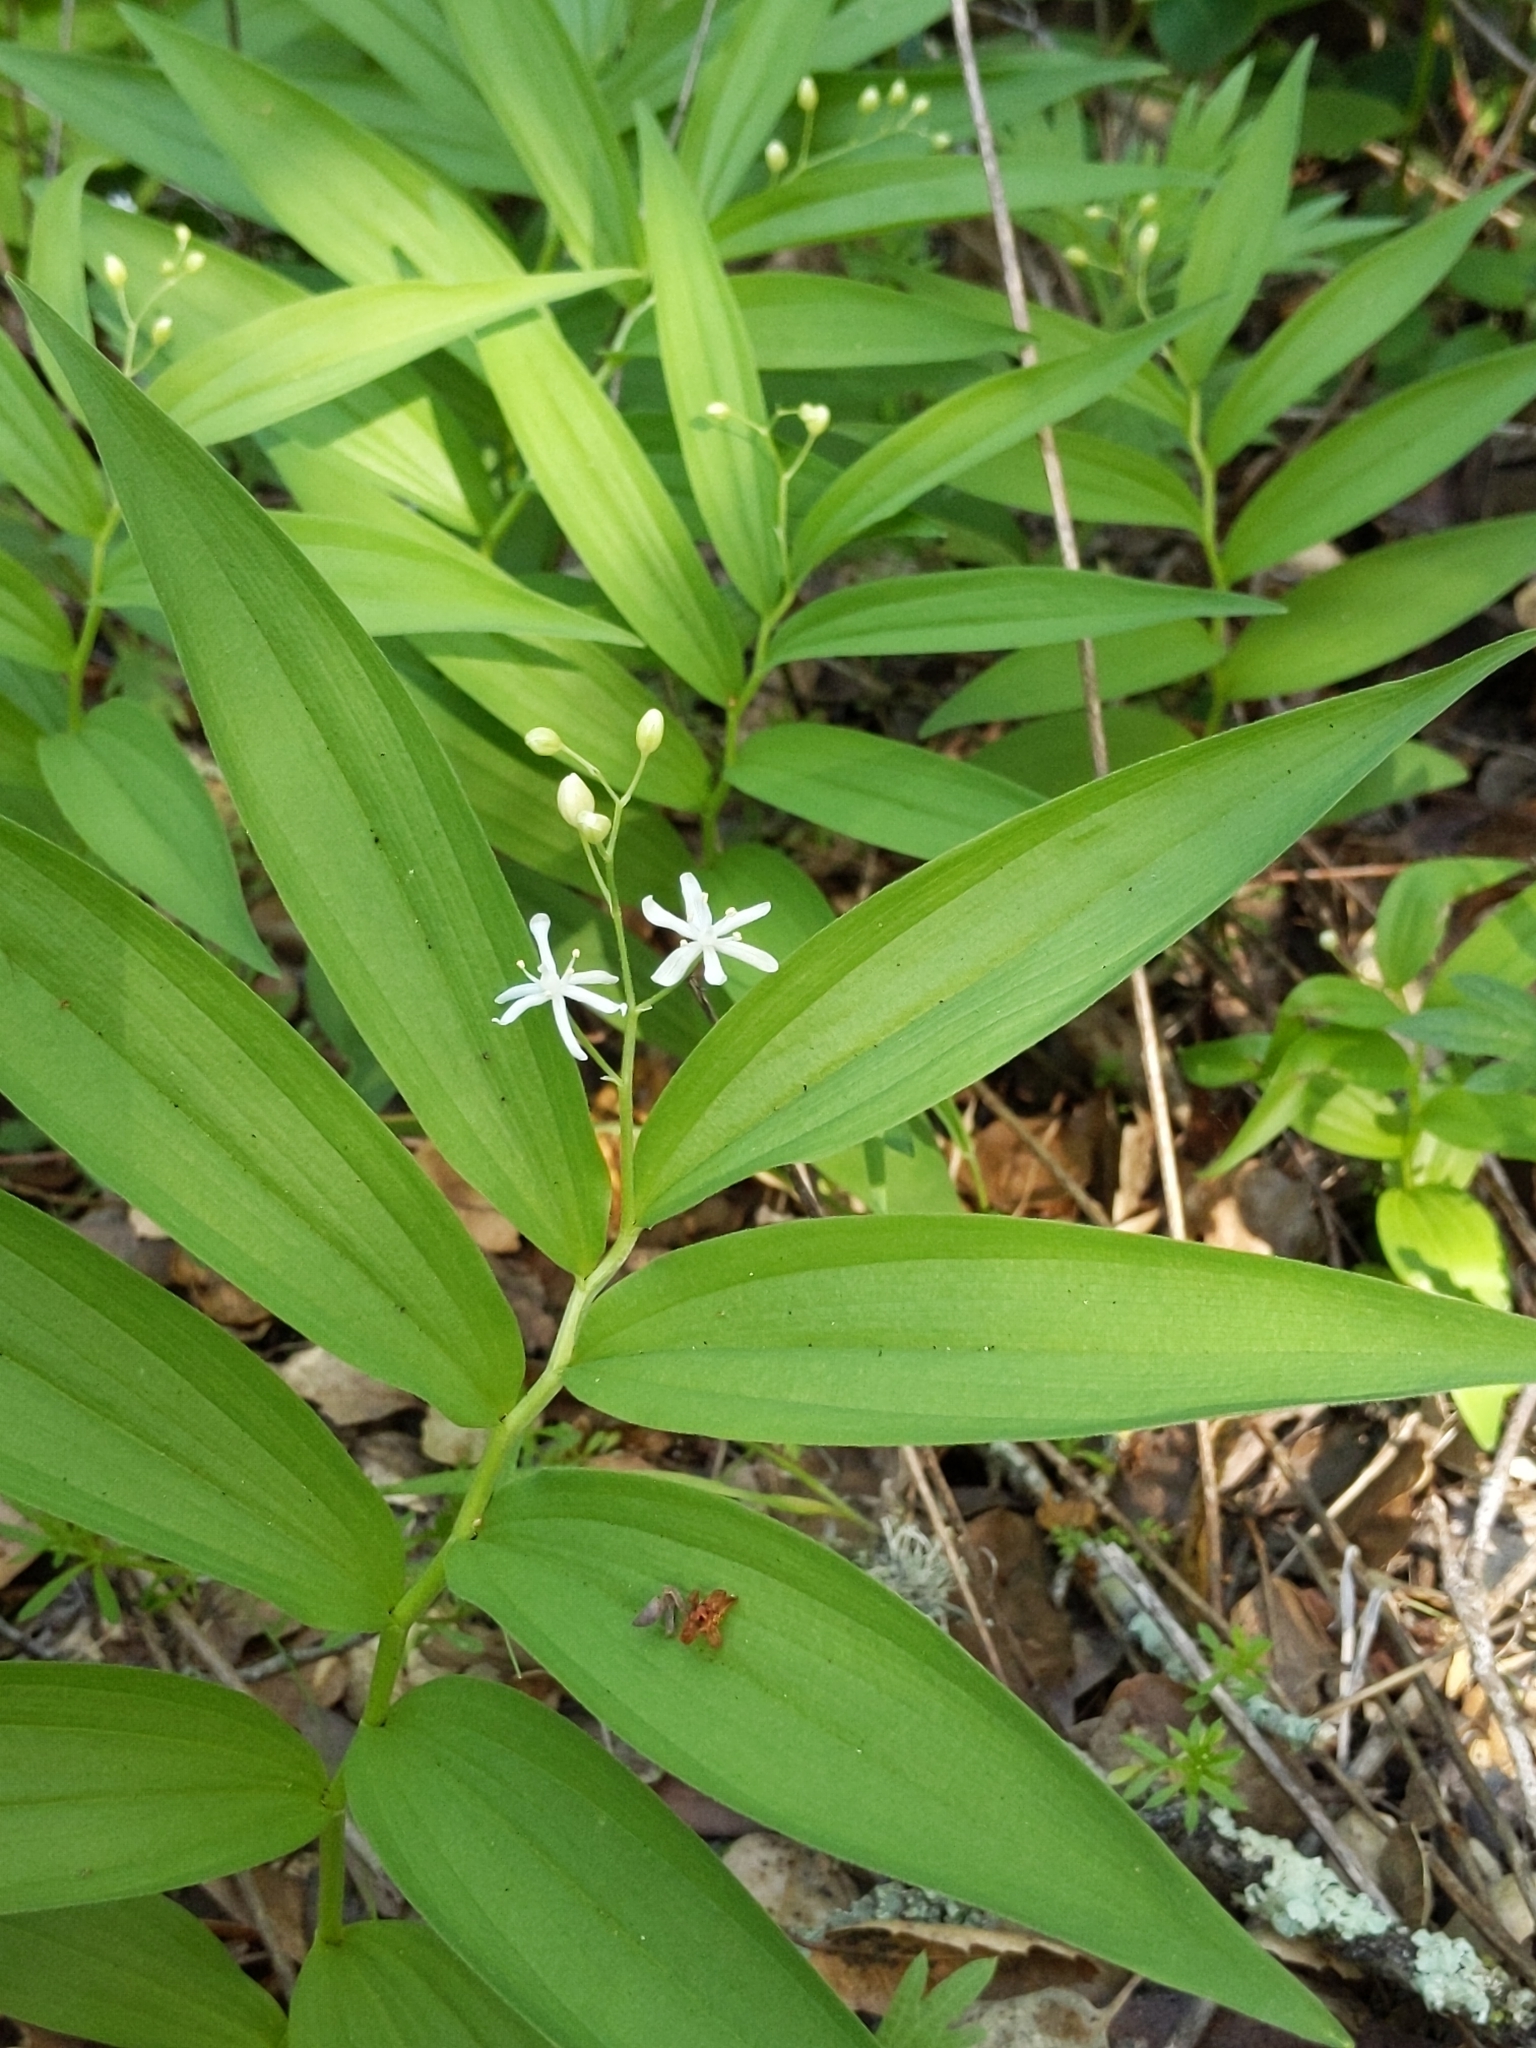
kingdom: Plantae
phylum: Tracheophyta
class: Liliopsida
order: Asparagales
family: Asparagaceae
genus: Maianthemum
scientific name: Maianthemum stellatum
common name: Little false solomon's seal
